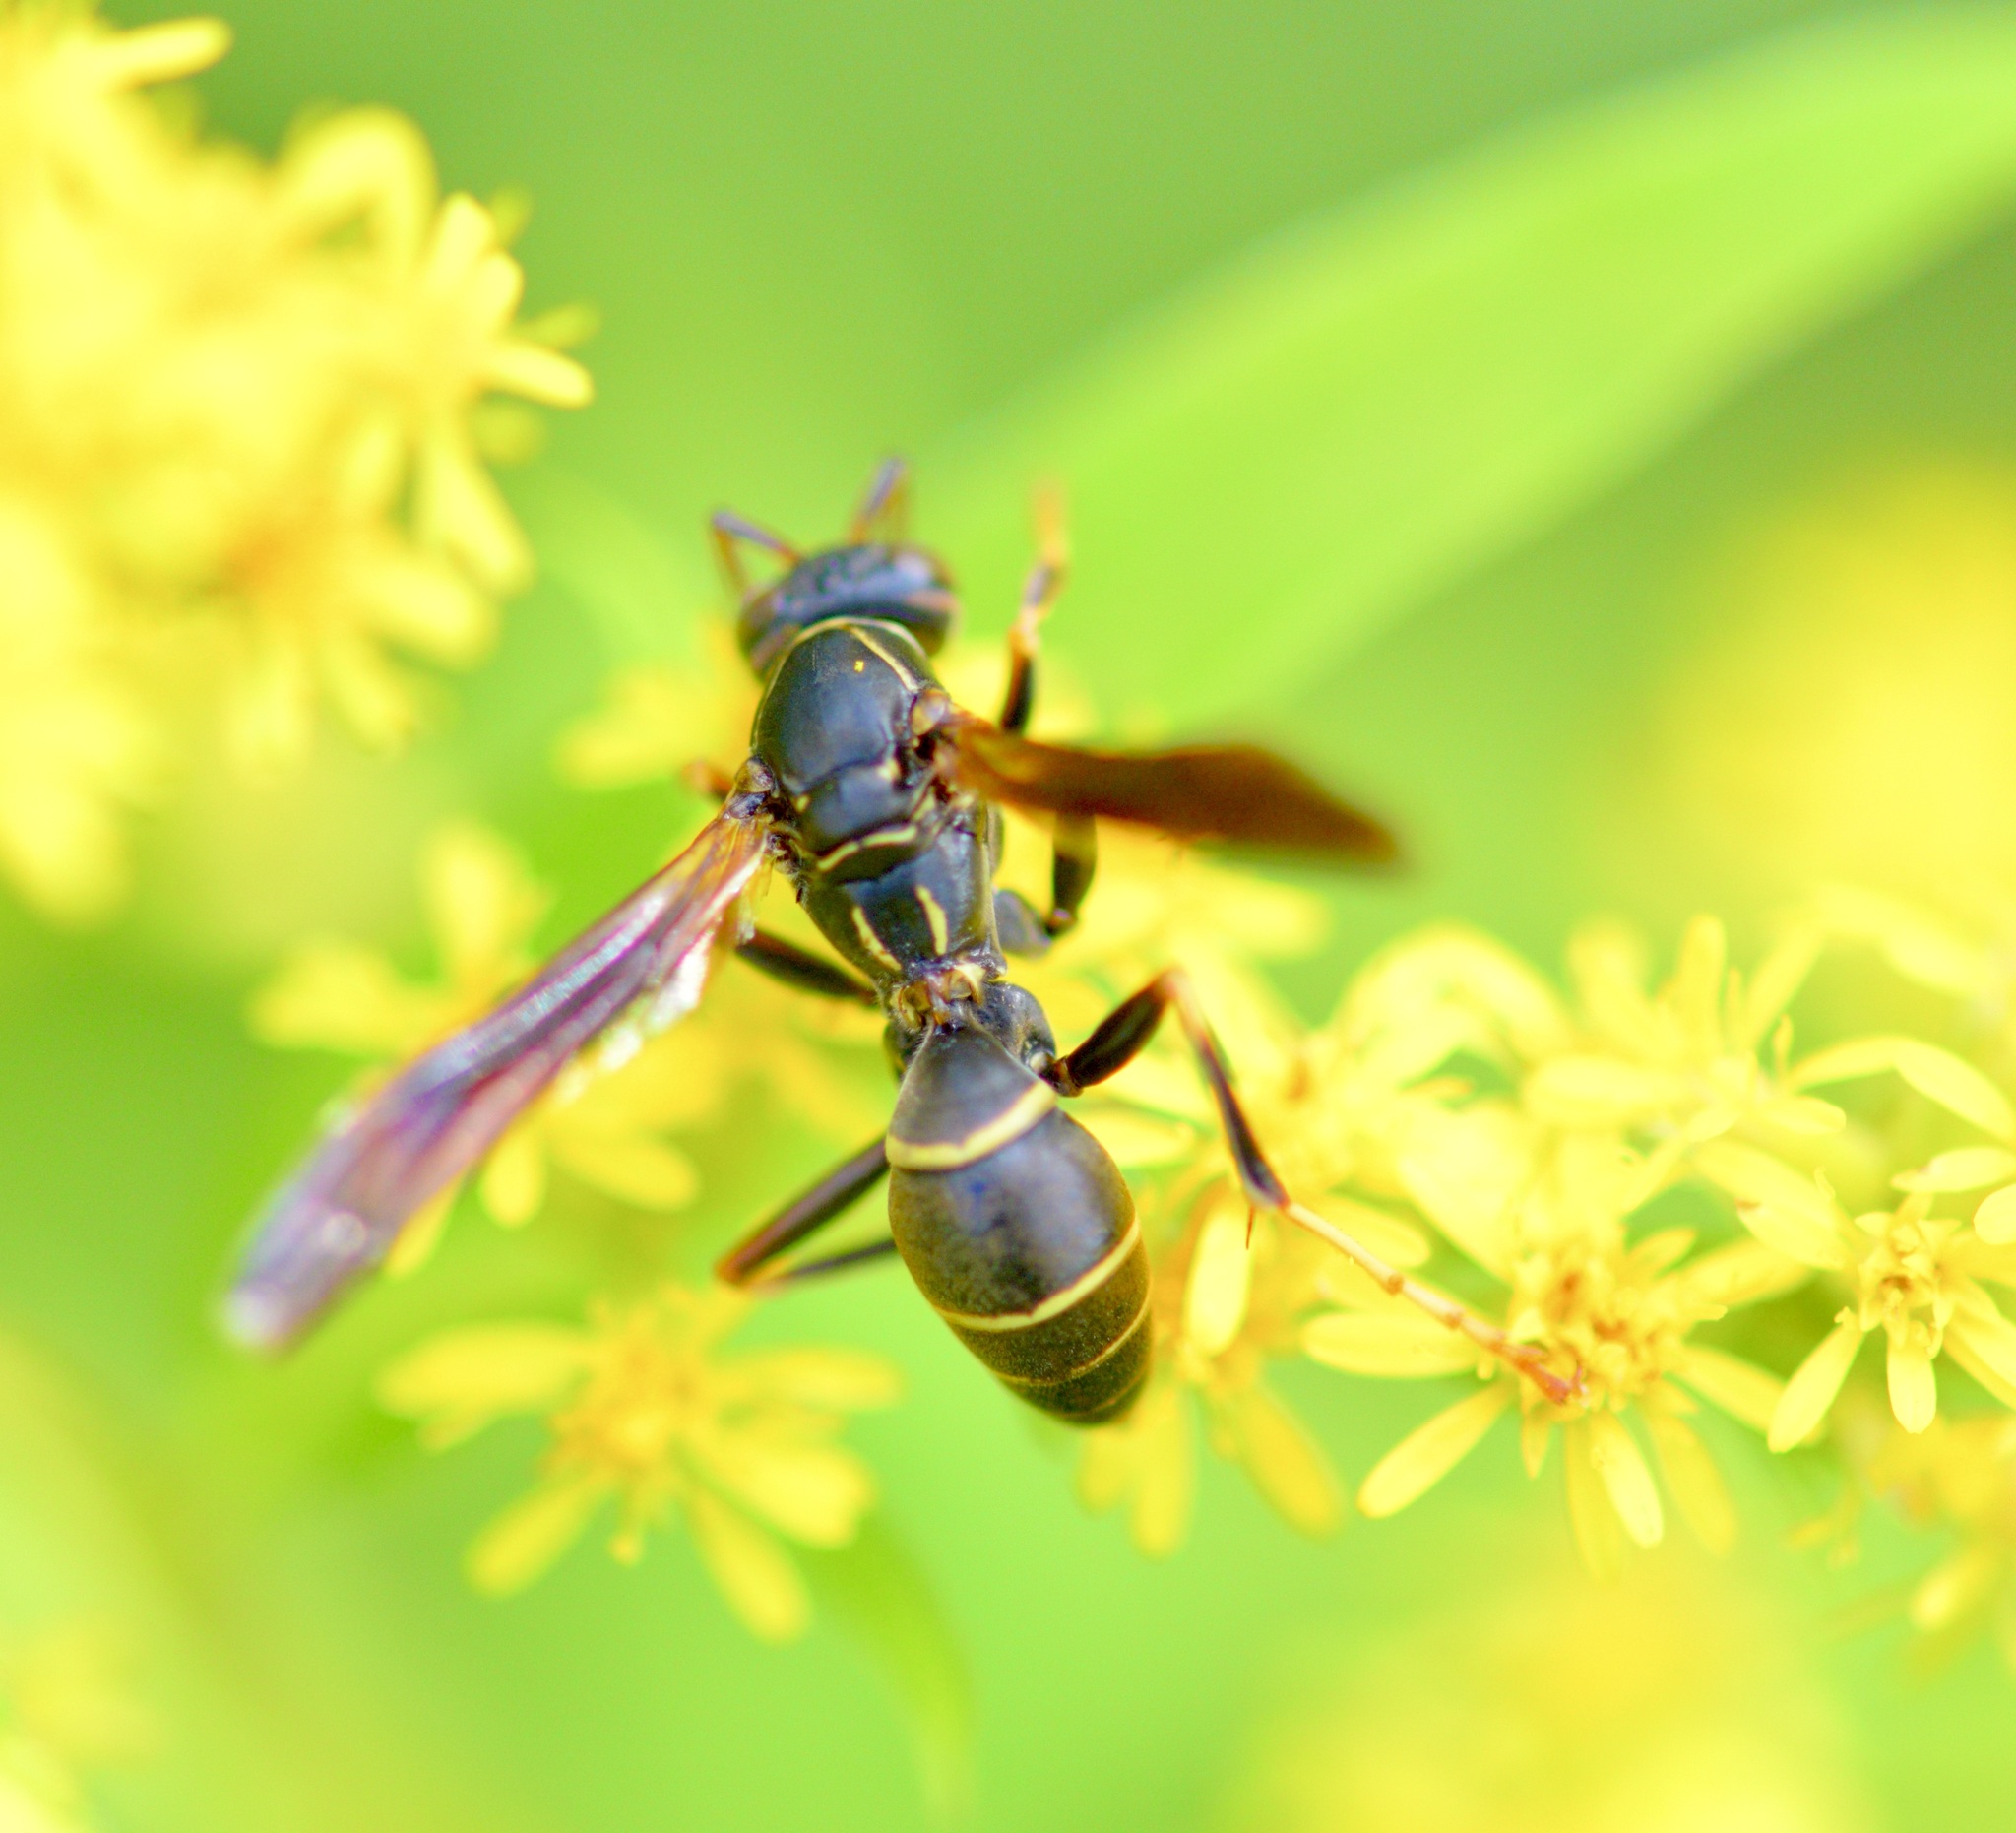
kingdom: Animalia
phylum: Arthropoda
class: Insecta
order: Hymenoptera
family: Eumenidae
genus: Polistes
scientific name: Polistes fuscatus
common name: Dark paper wasp
